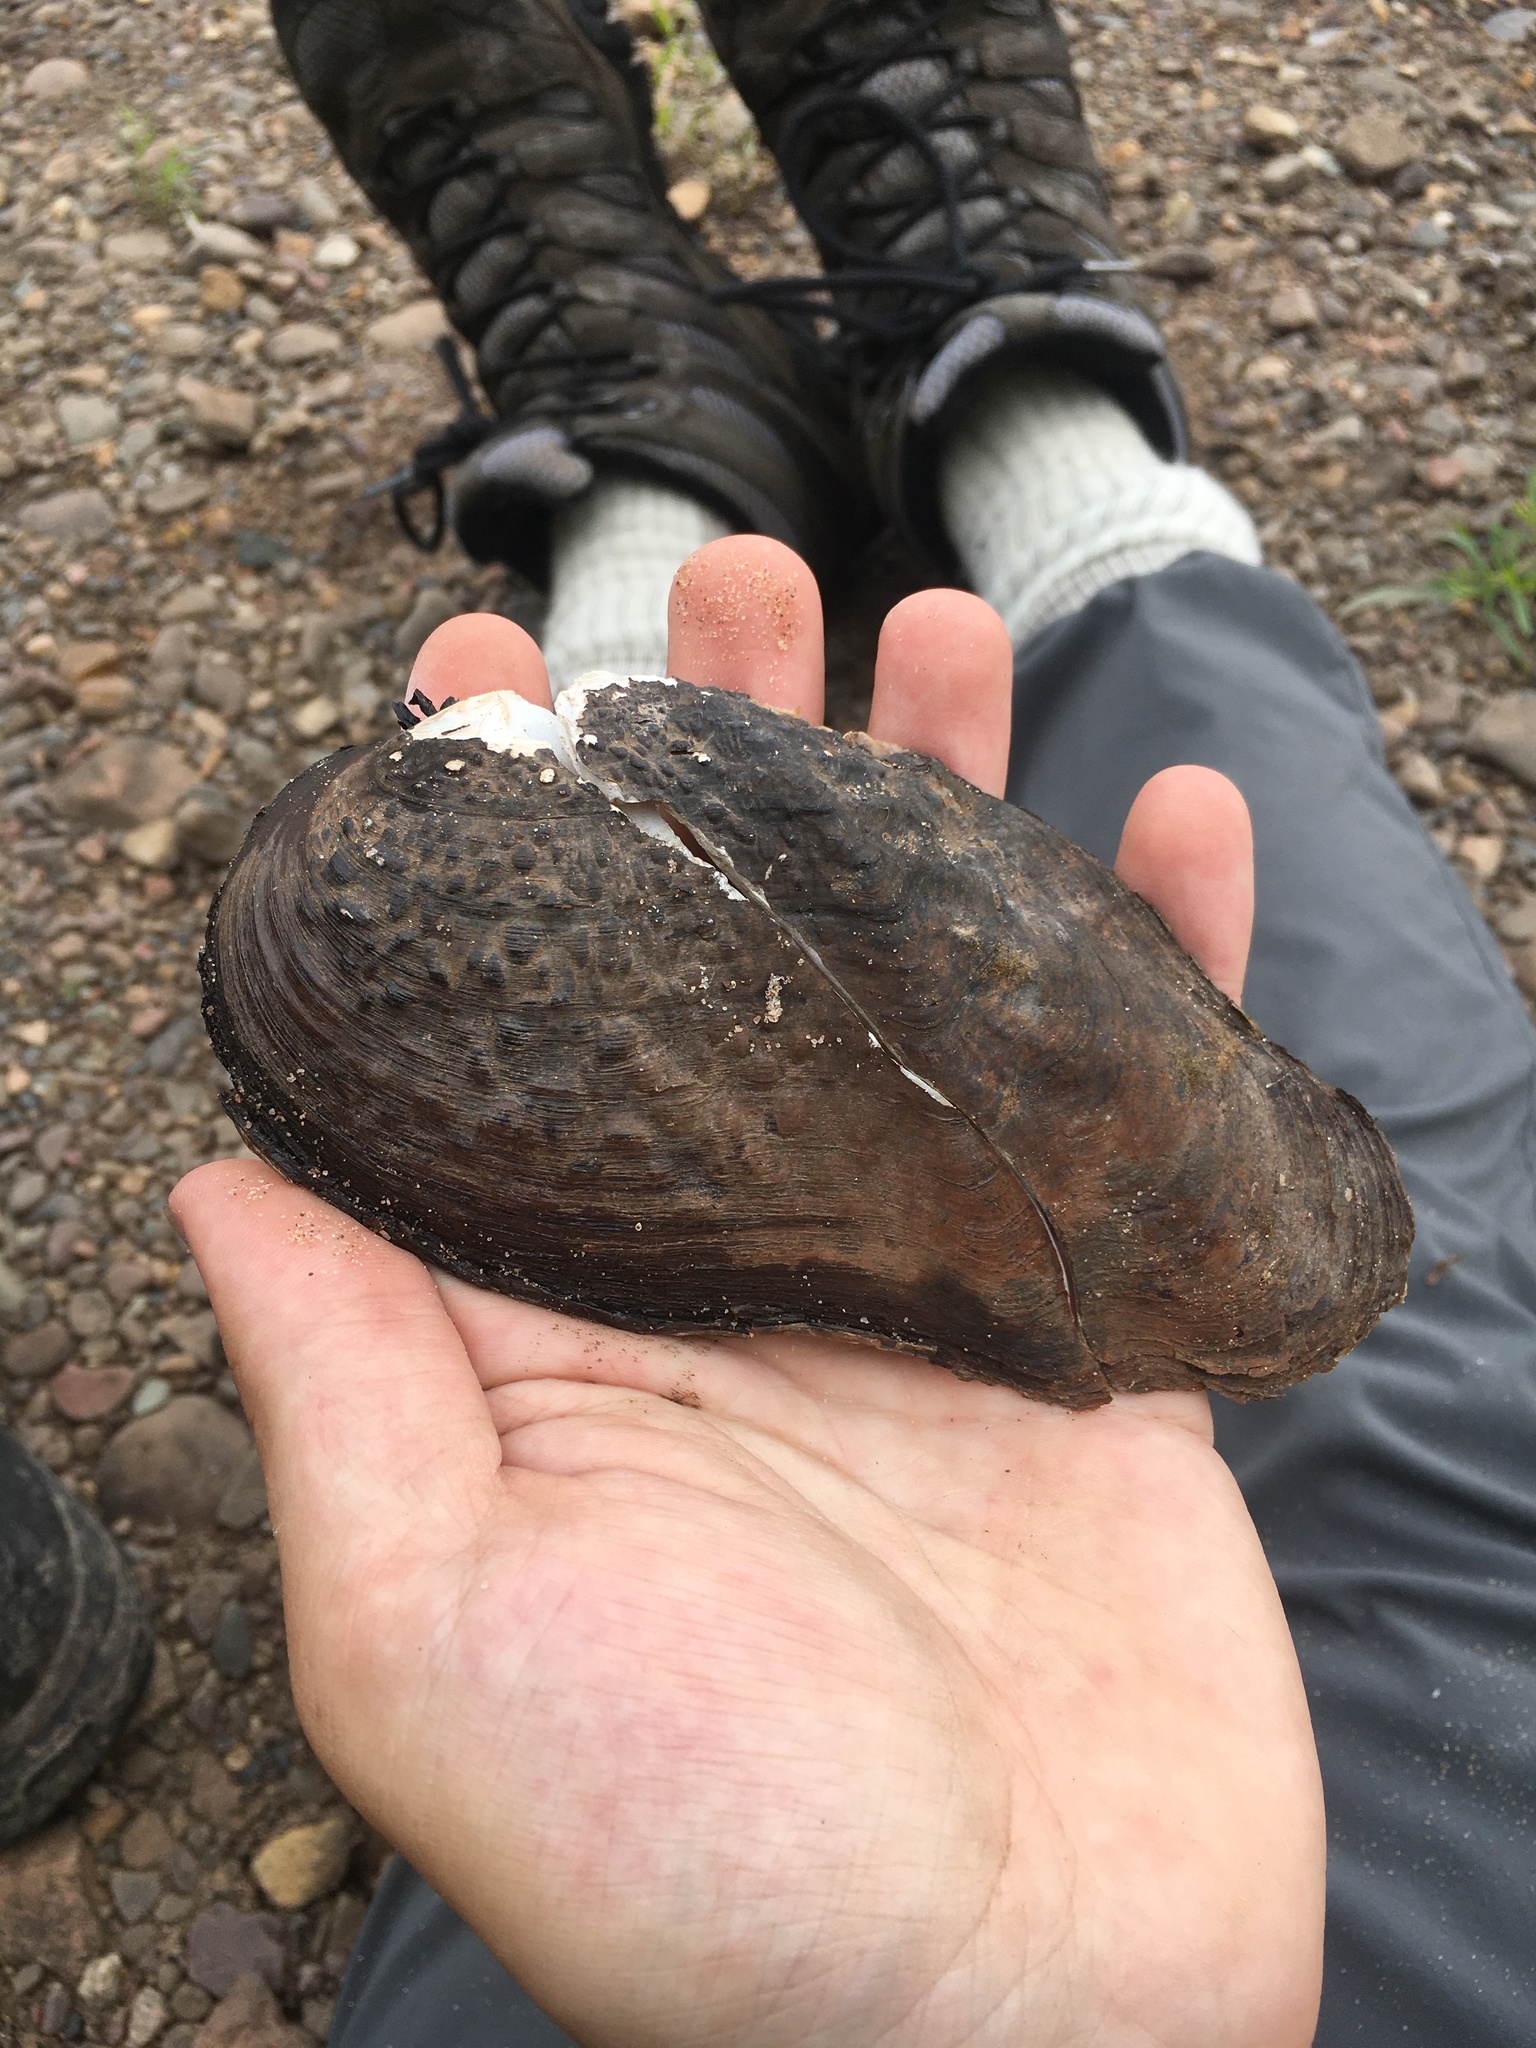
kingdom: Animalia
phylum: Mollusca
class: Bivalvia
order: Unionida
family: Unionidae
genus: Tritogonia
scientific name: Tritogonia verrucosa
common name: Pistolgrip
